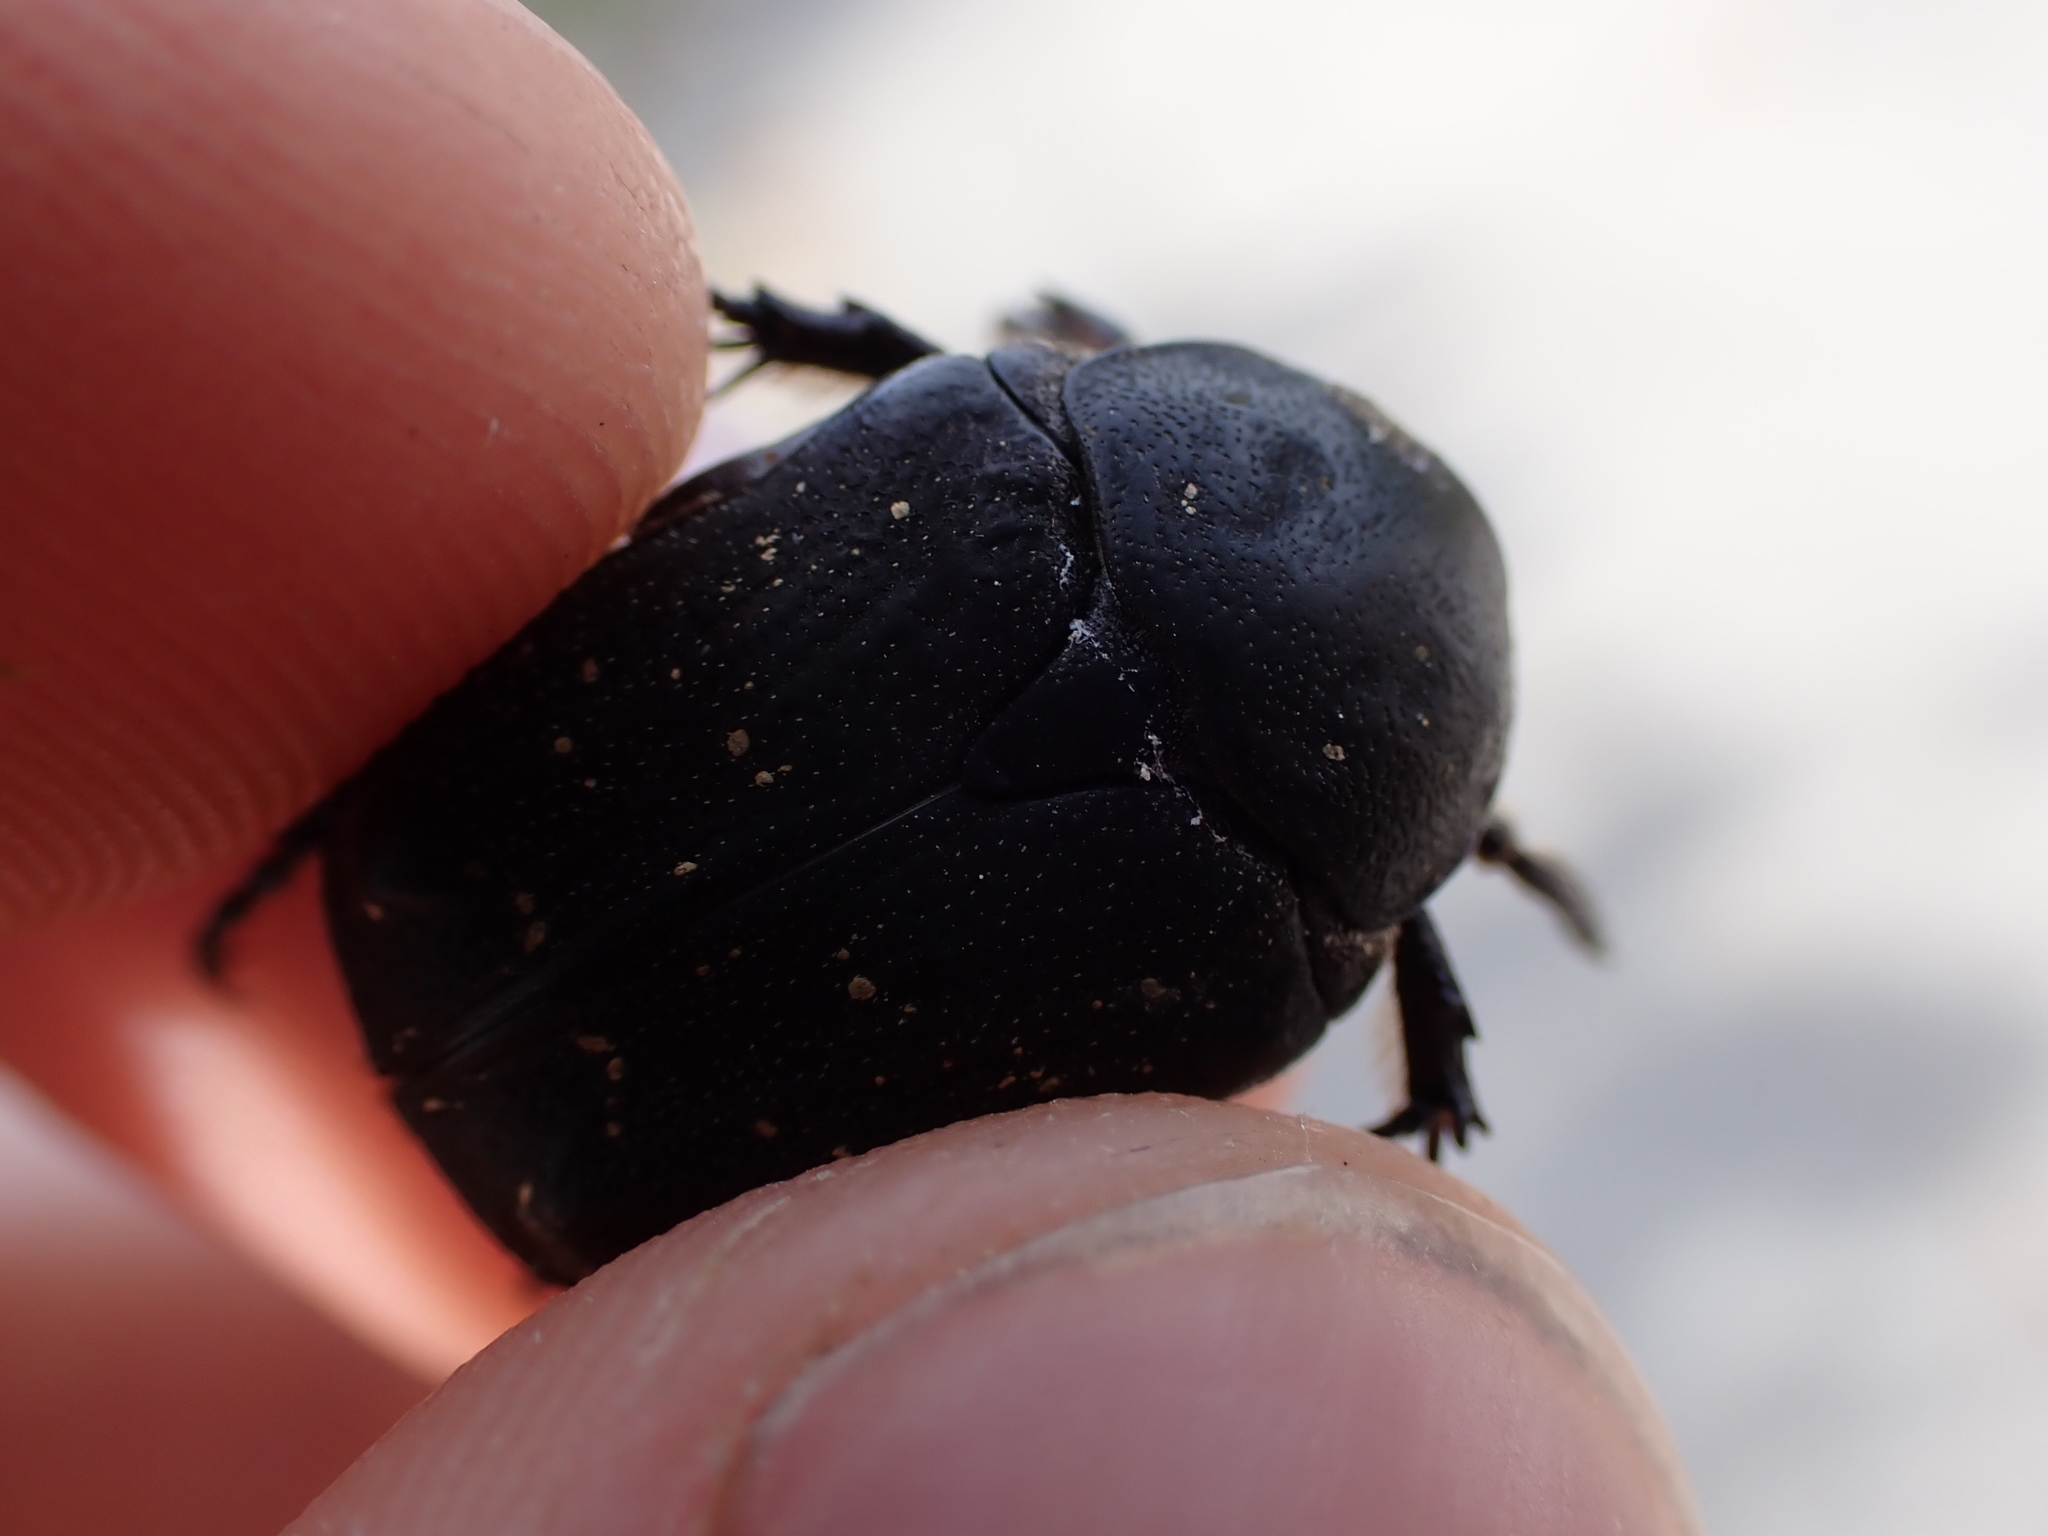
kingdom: Animalia
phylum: Arthropoda
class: Insecta
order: Coleoptera
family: Scarabaeidae
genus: Protaetia
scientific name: Protaetia morio
